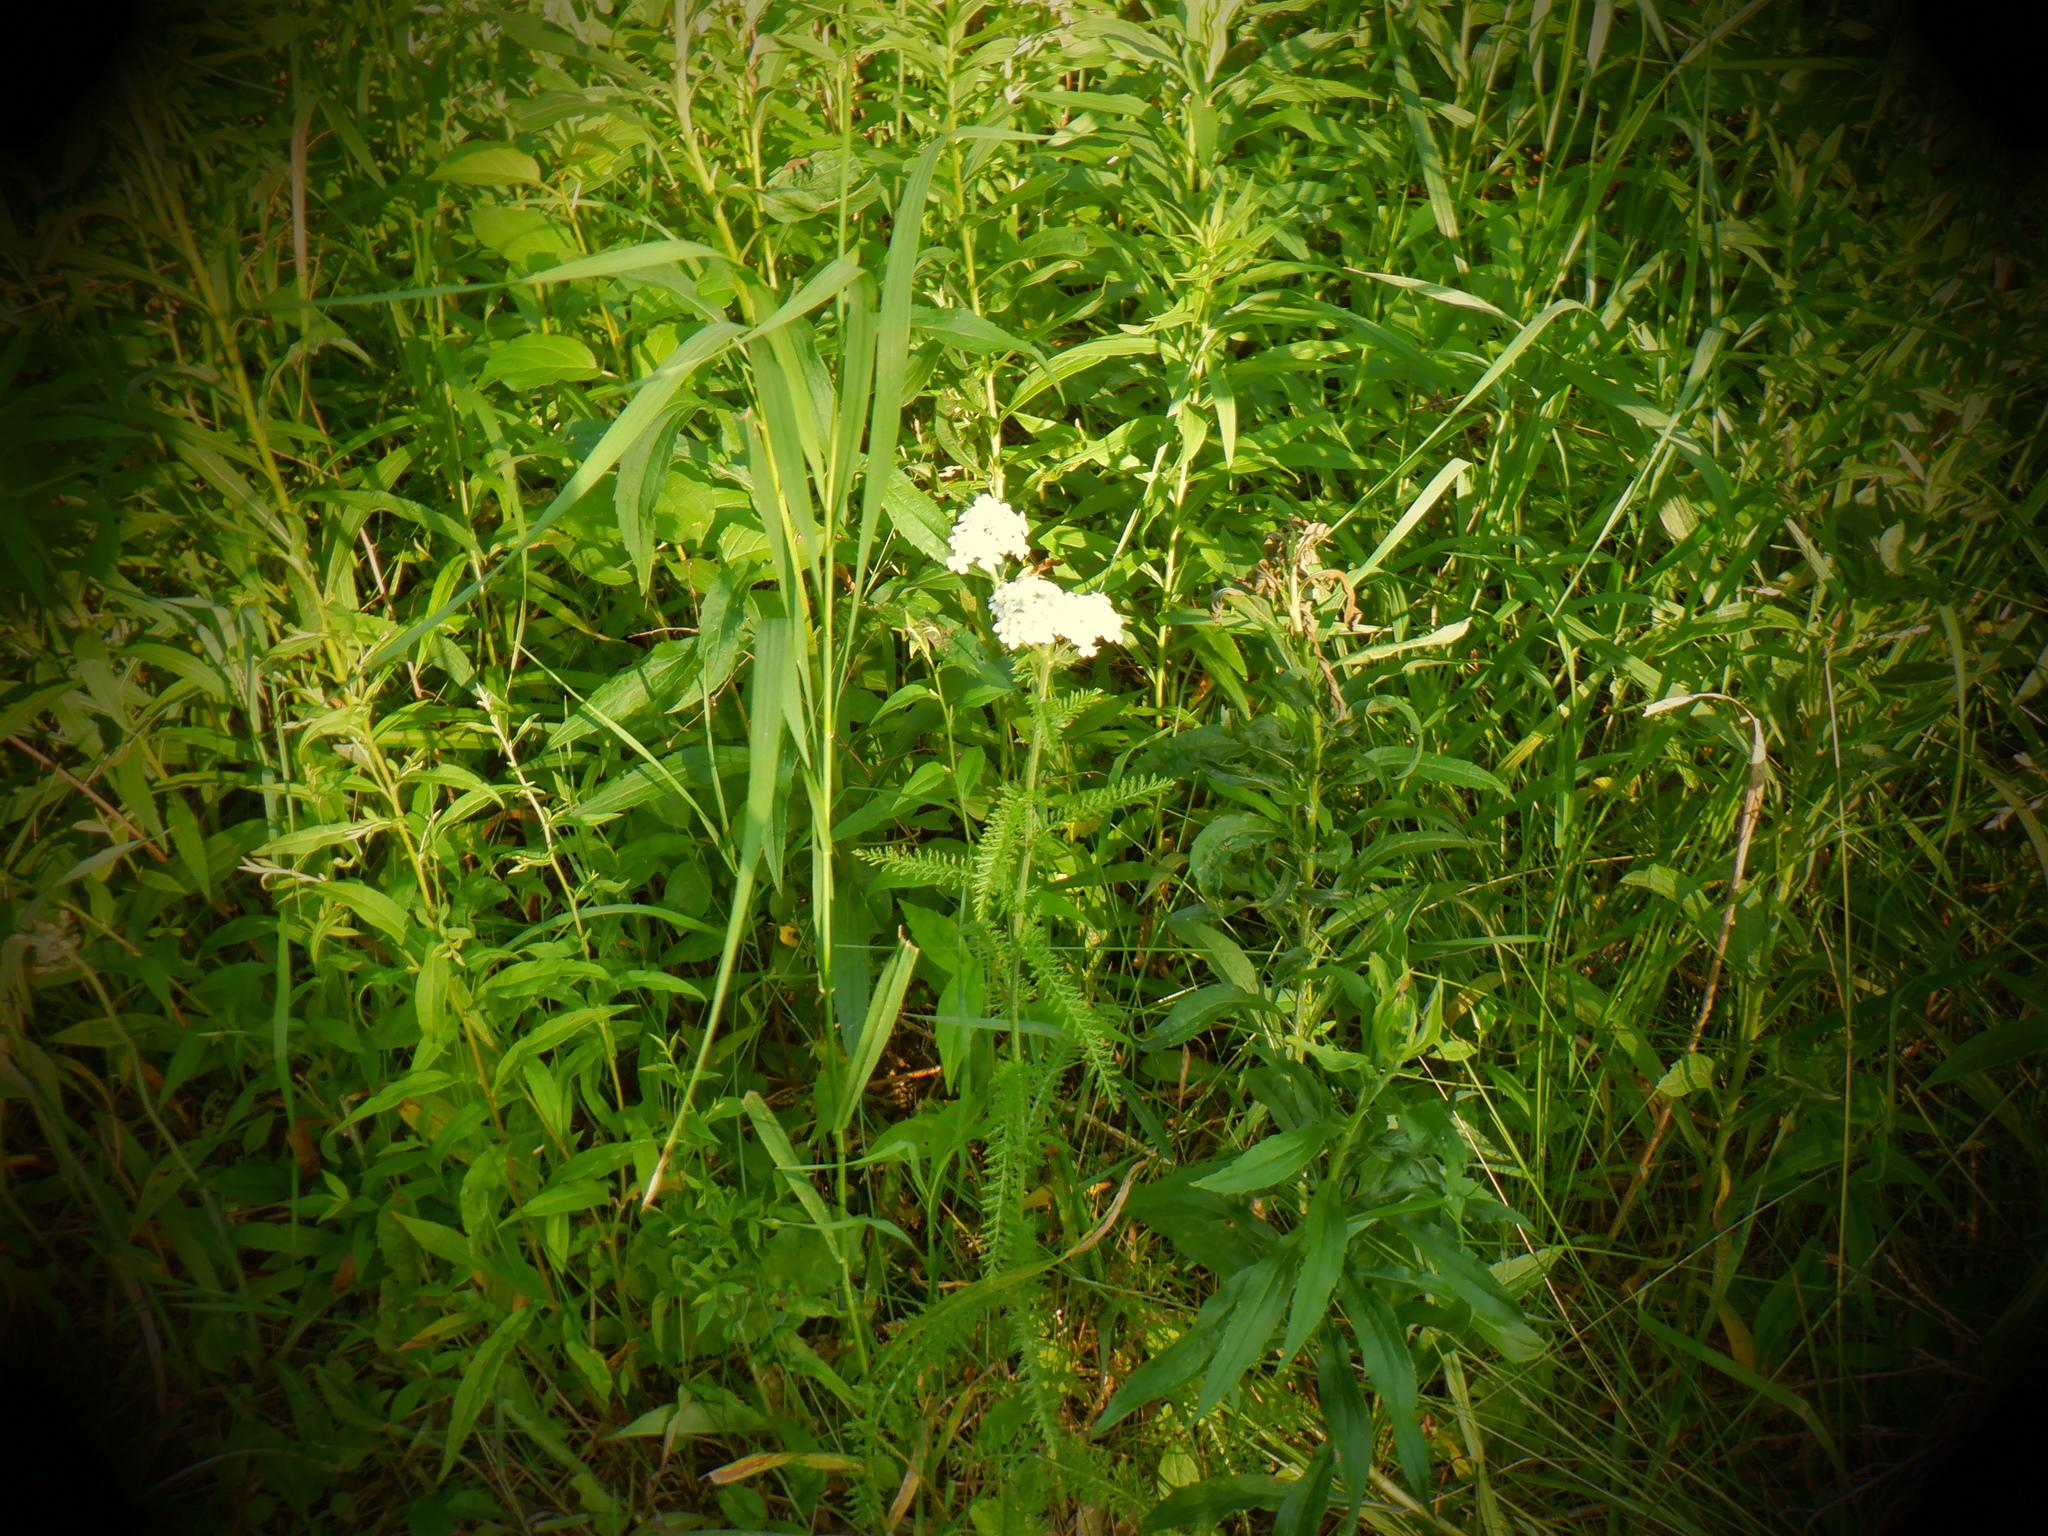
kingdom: Plantae
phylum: Tracheophyta
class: Magnoliopsida
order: Asterales
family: Asteraceae
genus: Achillea
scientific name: Achillea millefolium
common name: Yarrow
